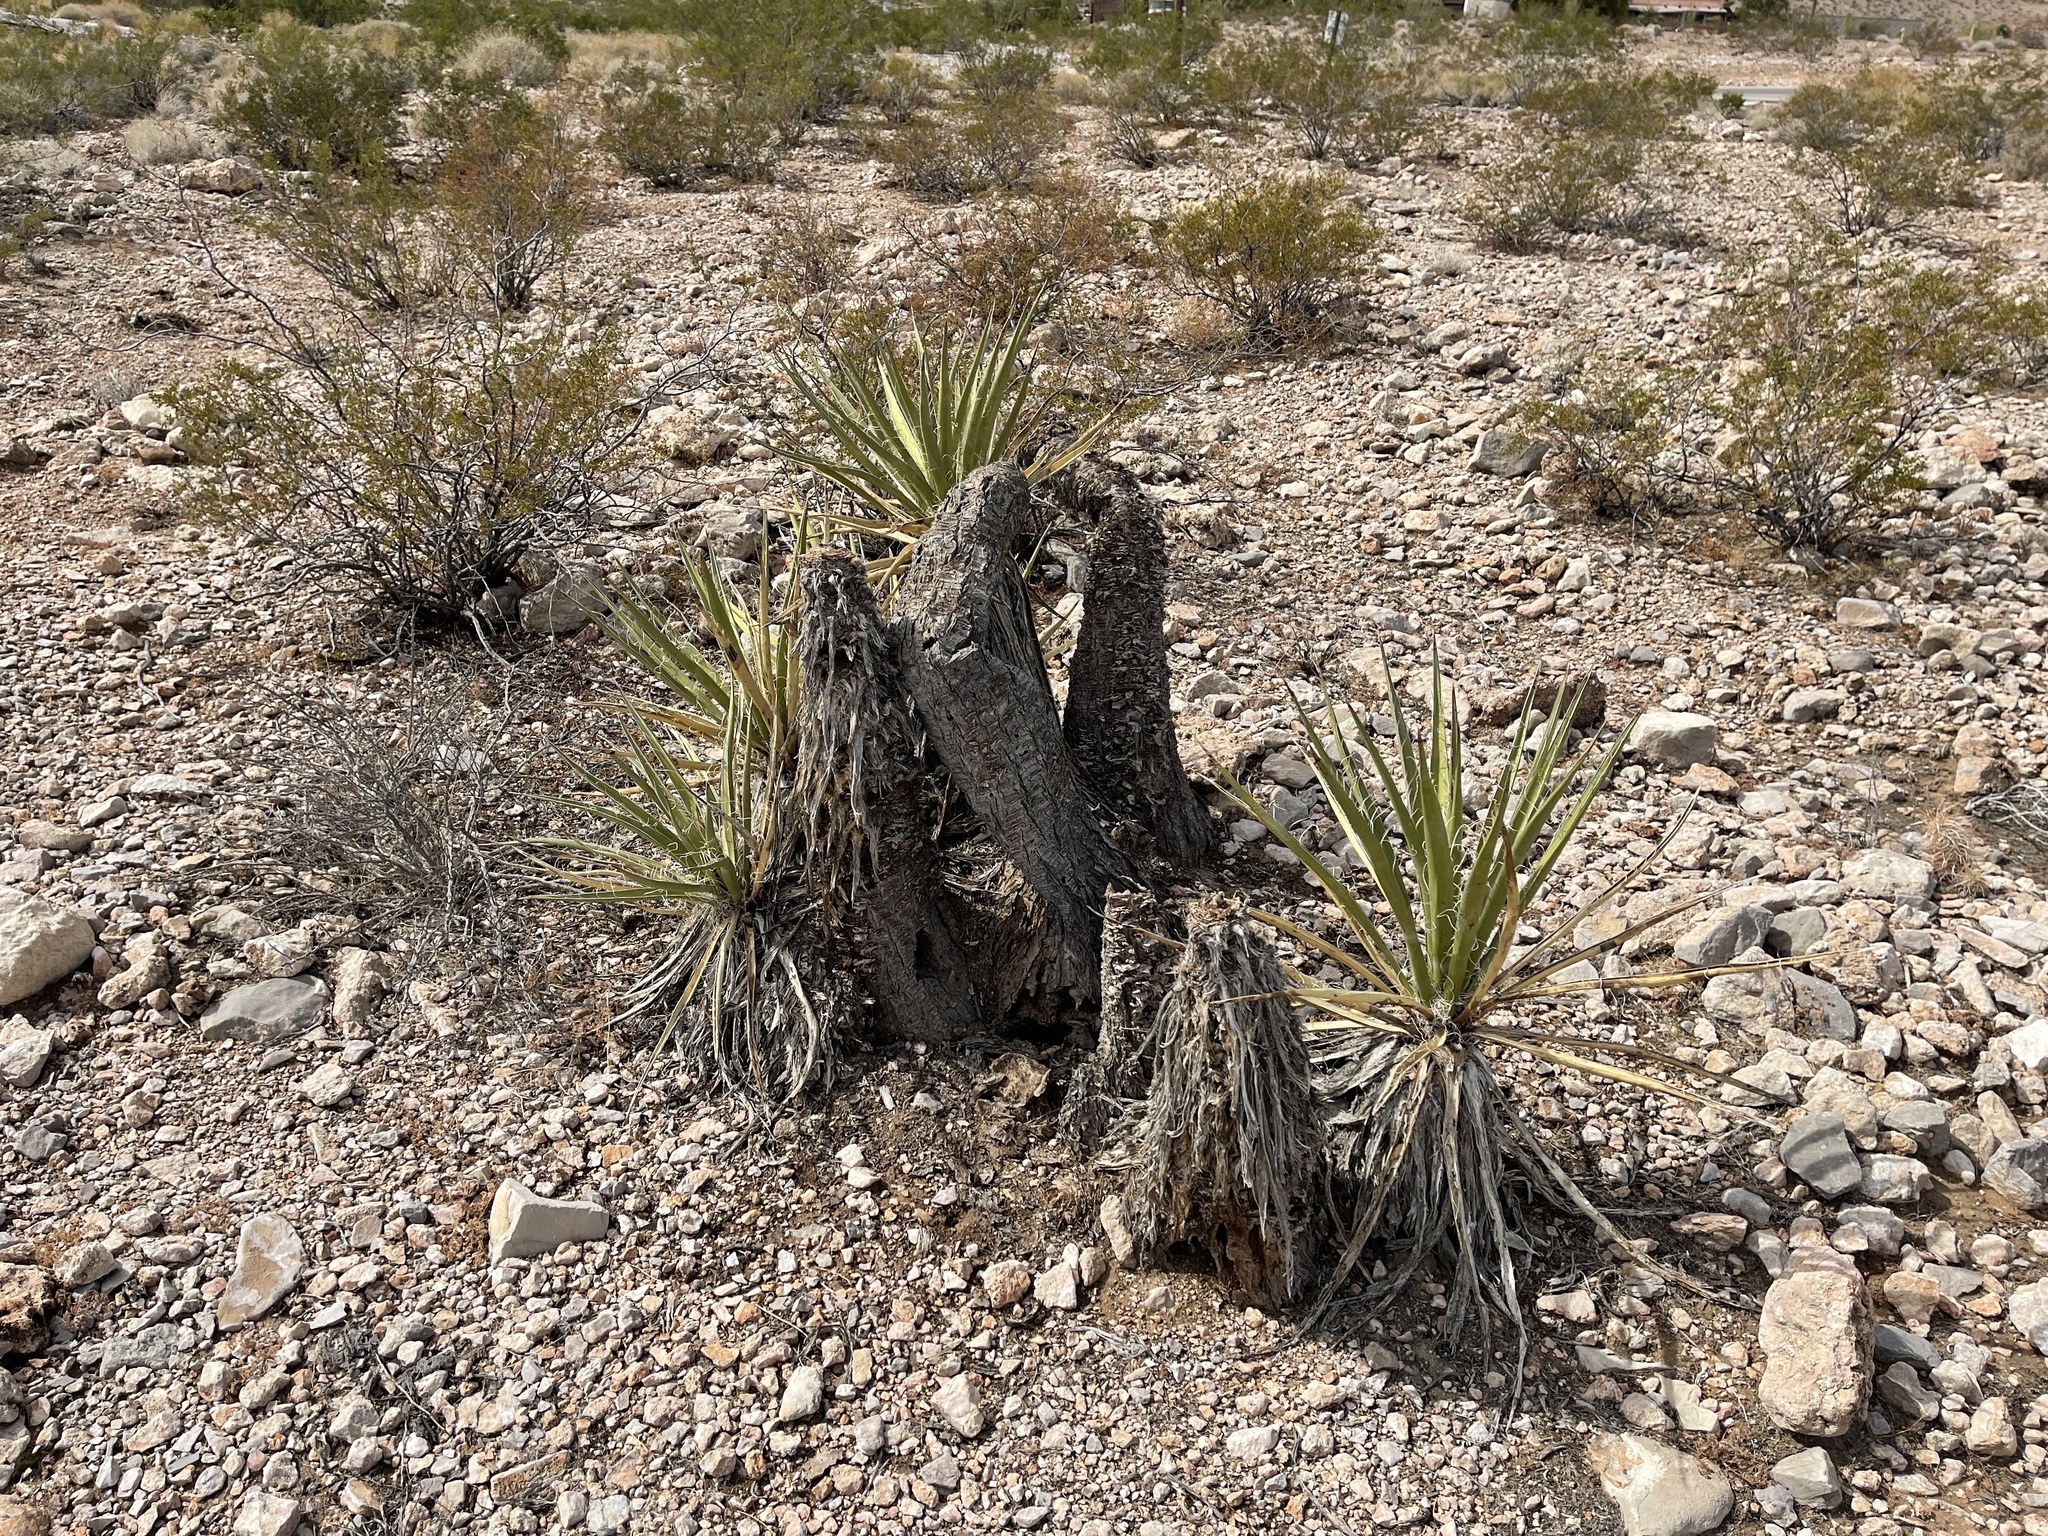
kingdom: Plantae
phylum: Tracheophyta
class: Liliopsida
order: Asparagales
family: Asparagaceae
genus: Yucca
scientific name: Yucca schidigera
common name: Mojave yucca
